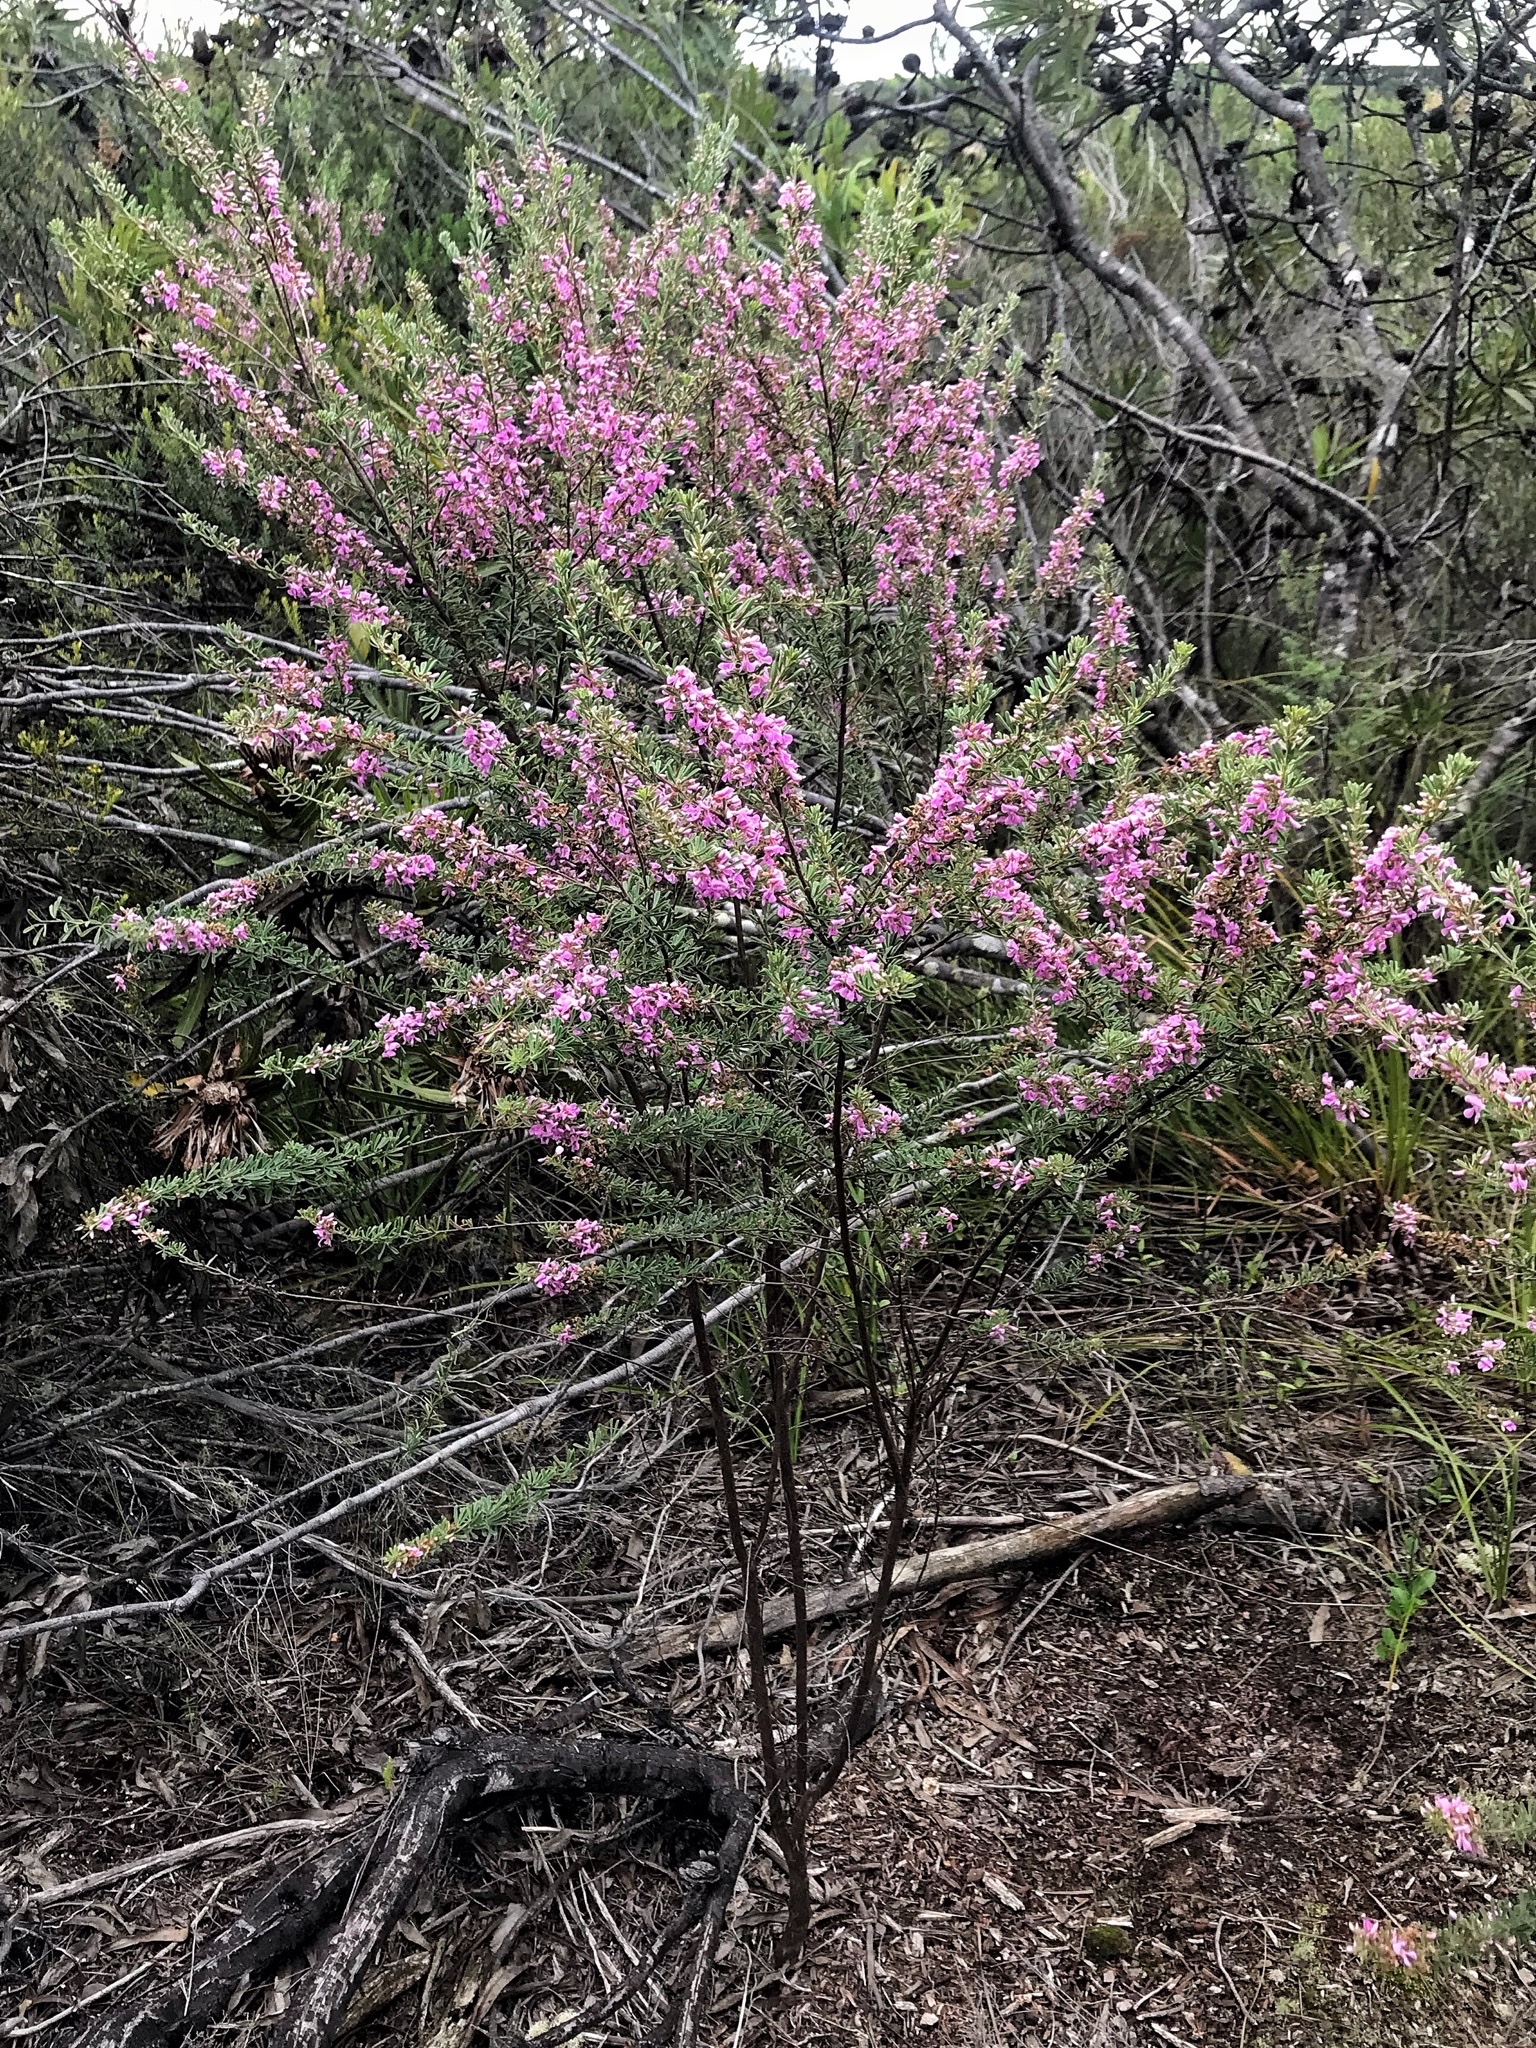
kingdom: Plantae
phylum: Tracheophyta
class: Magnoliopsida
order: Fabales
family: Fabaceae
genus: Indigofera
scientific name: Indigofera flabellata
